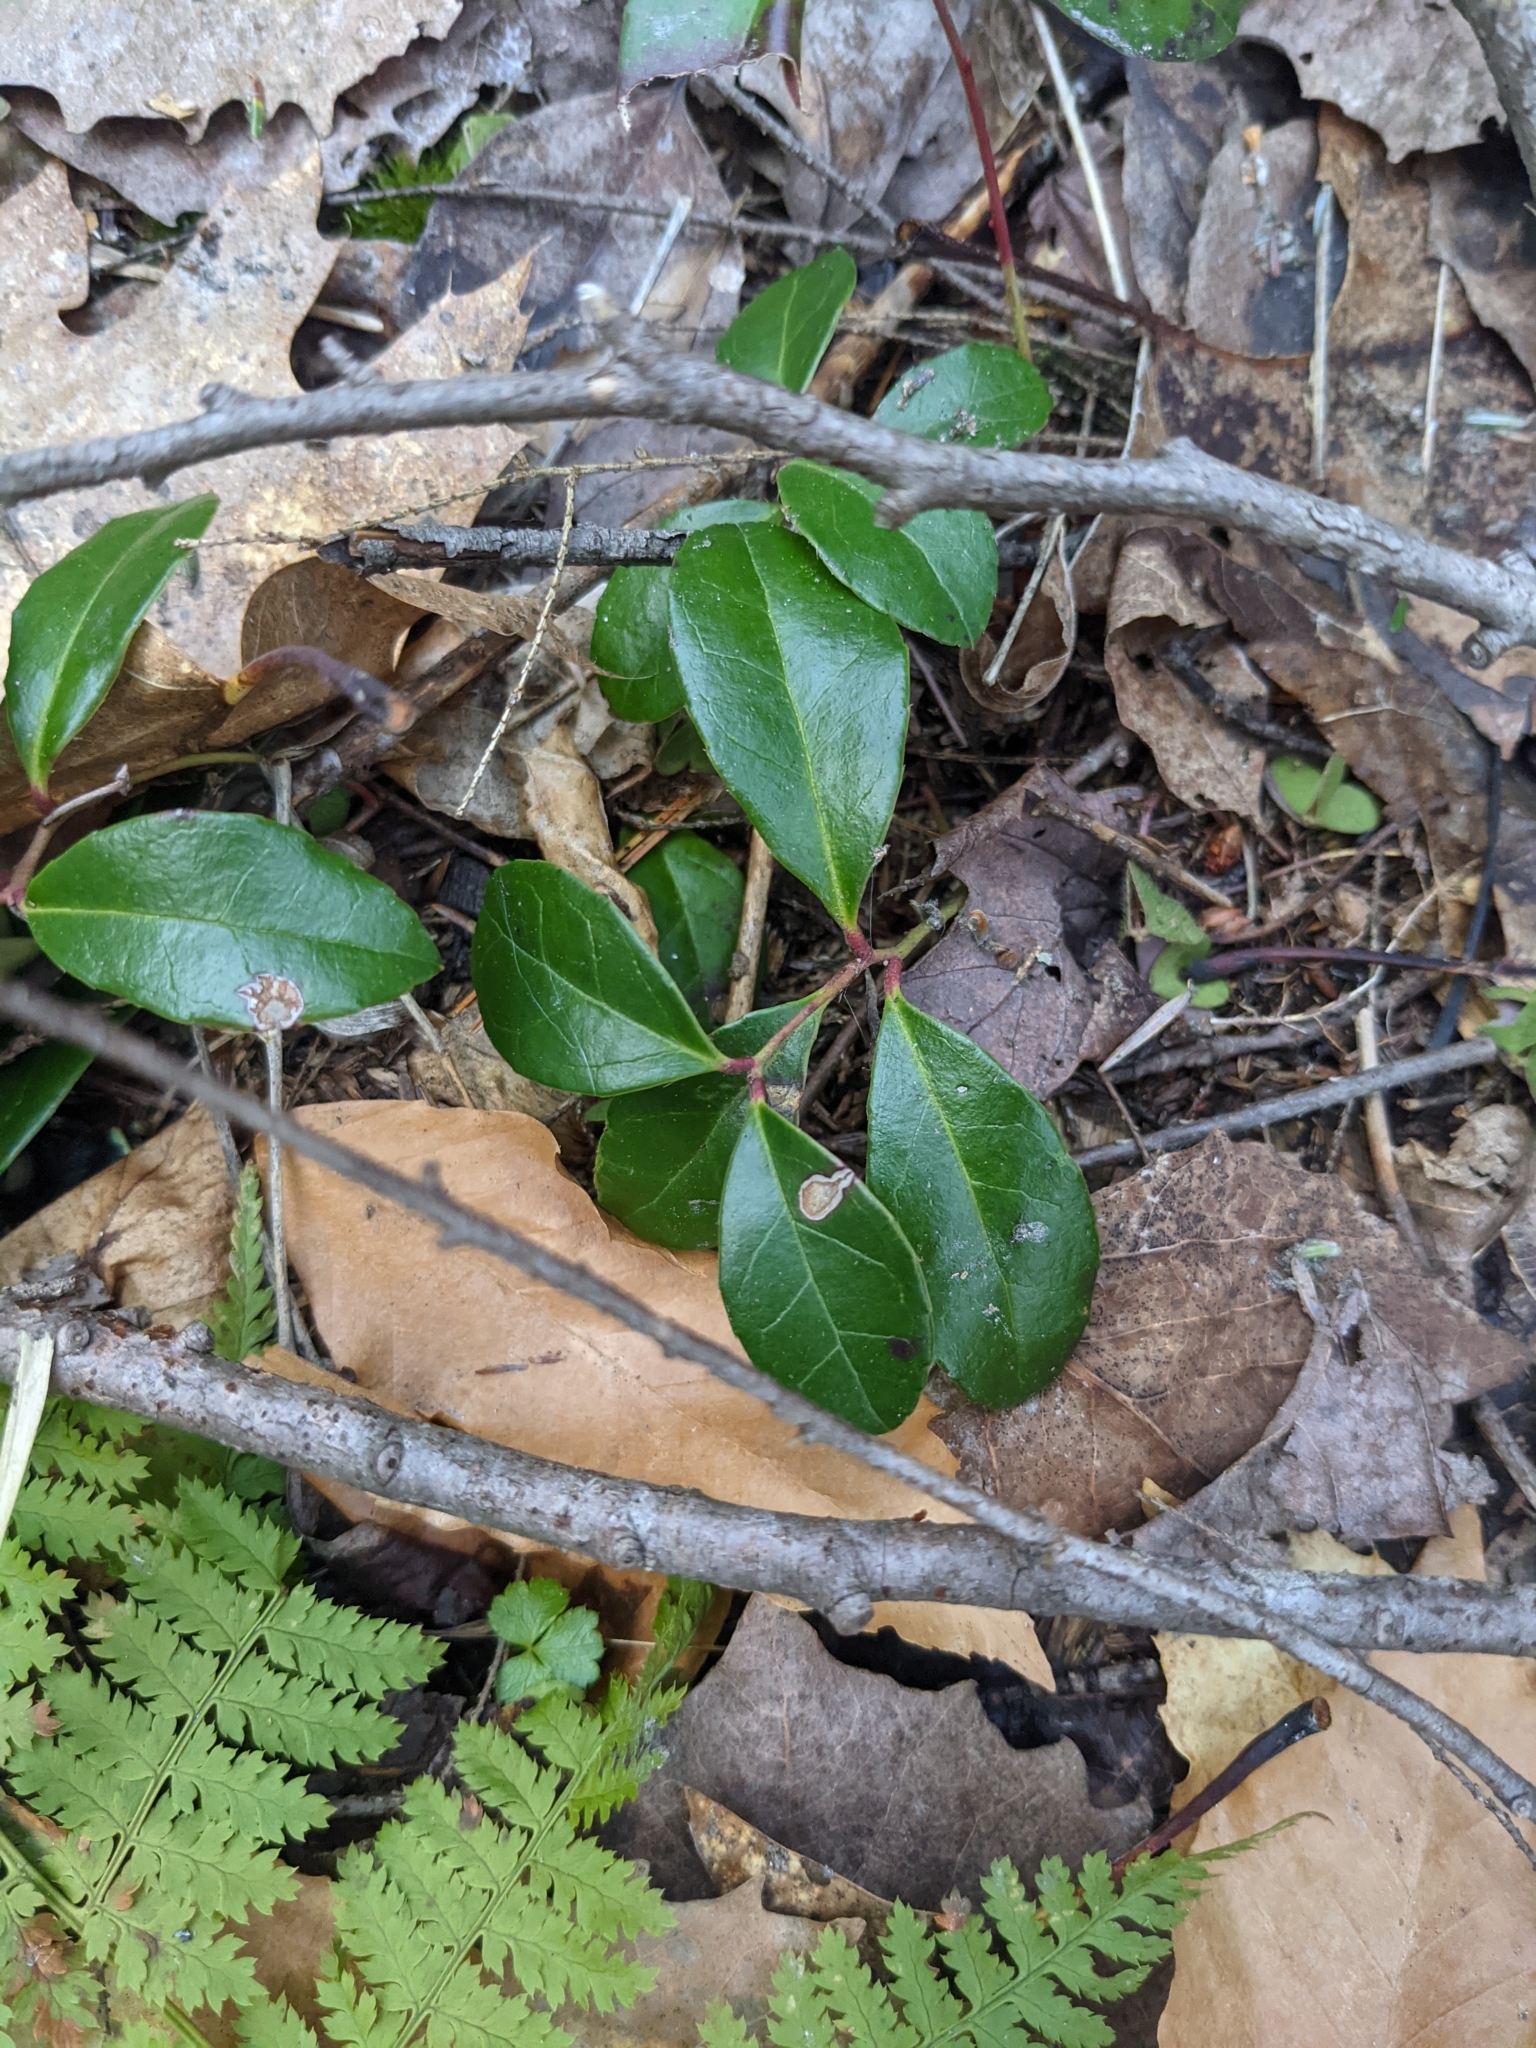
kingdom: Plantae
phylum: Tracheophyta
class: Magnoliopsida
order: Ericales
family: Ericaceae
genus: Gaultheria
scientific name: Gaultheria procumbens
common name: Checkerberry
